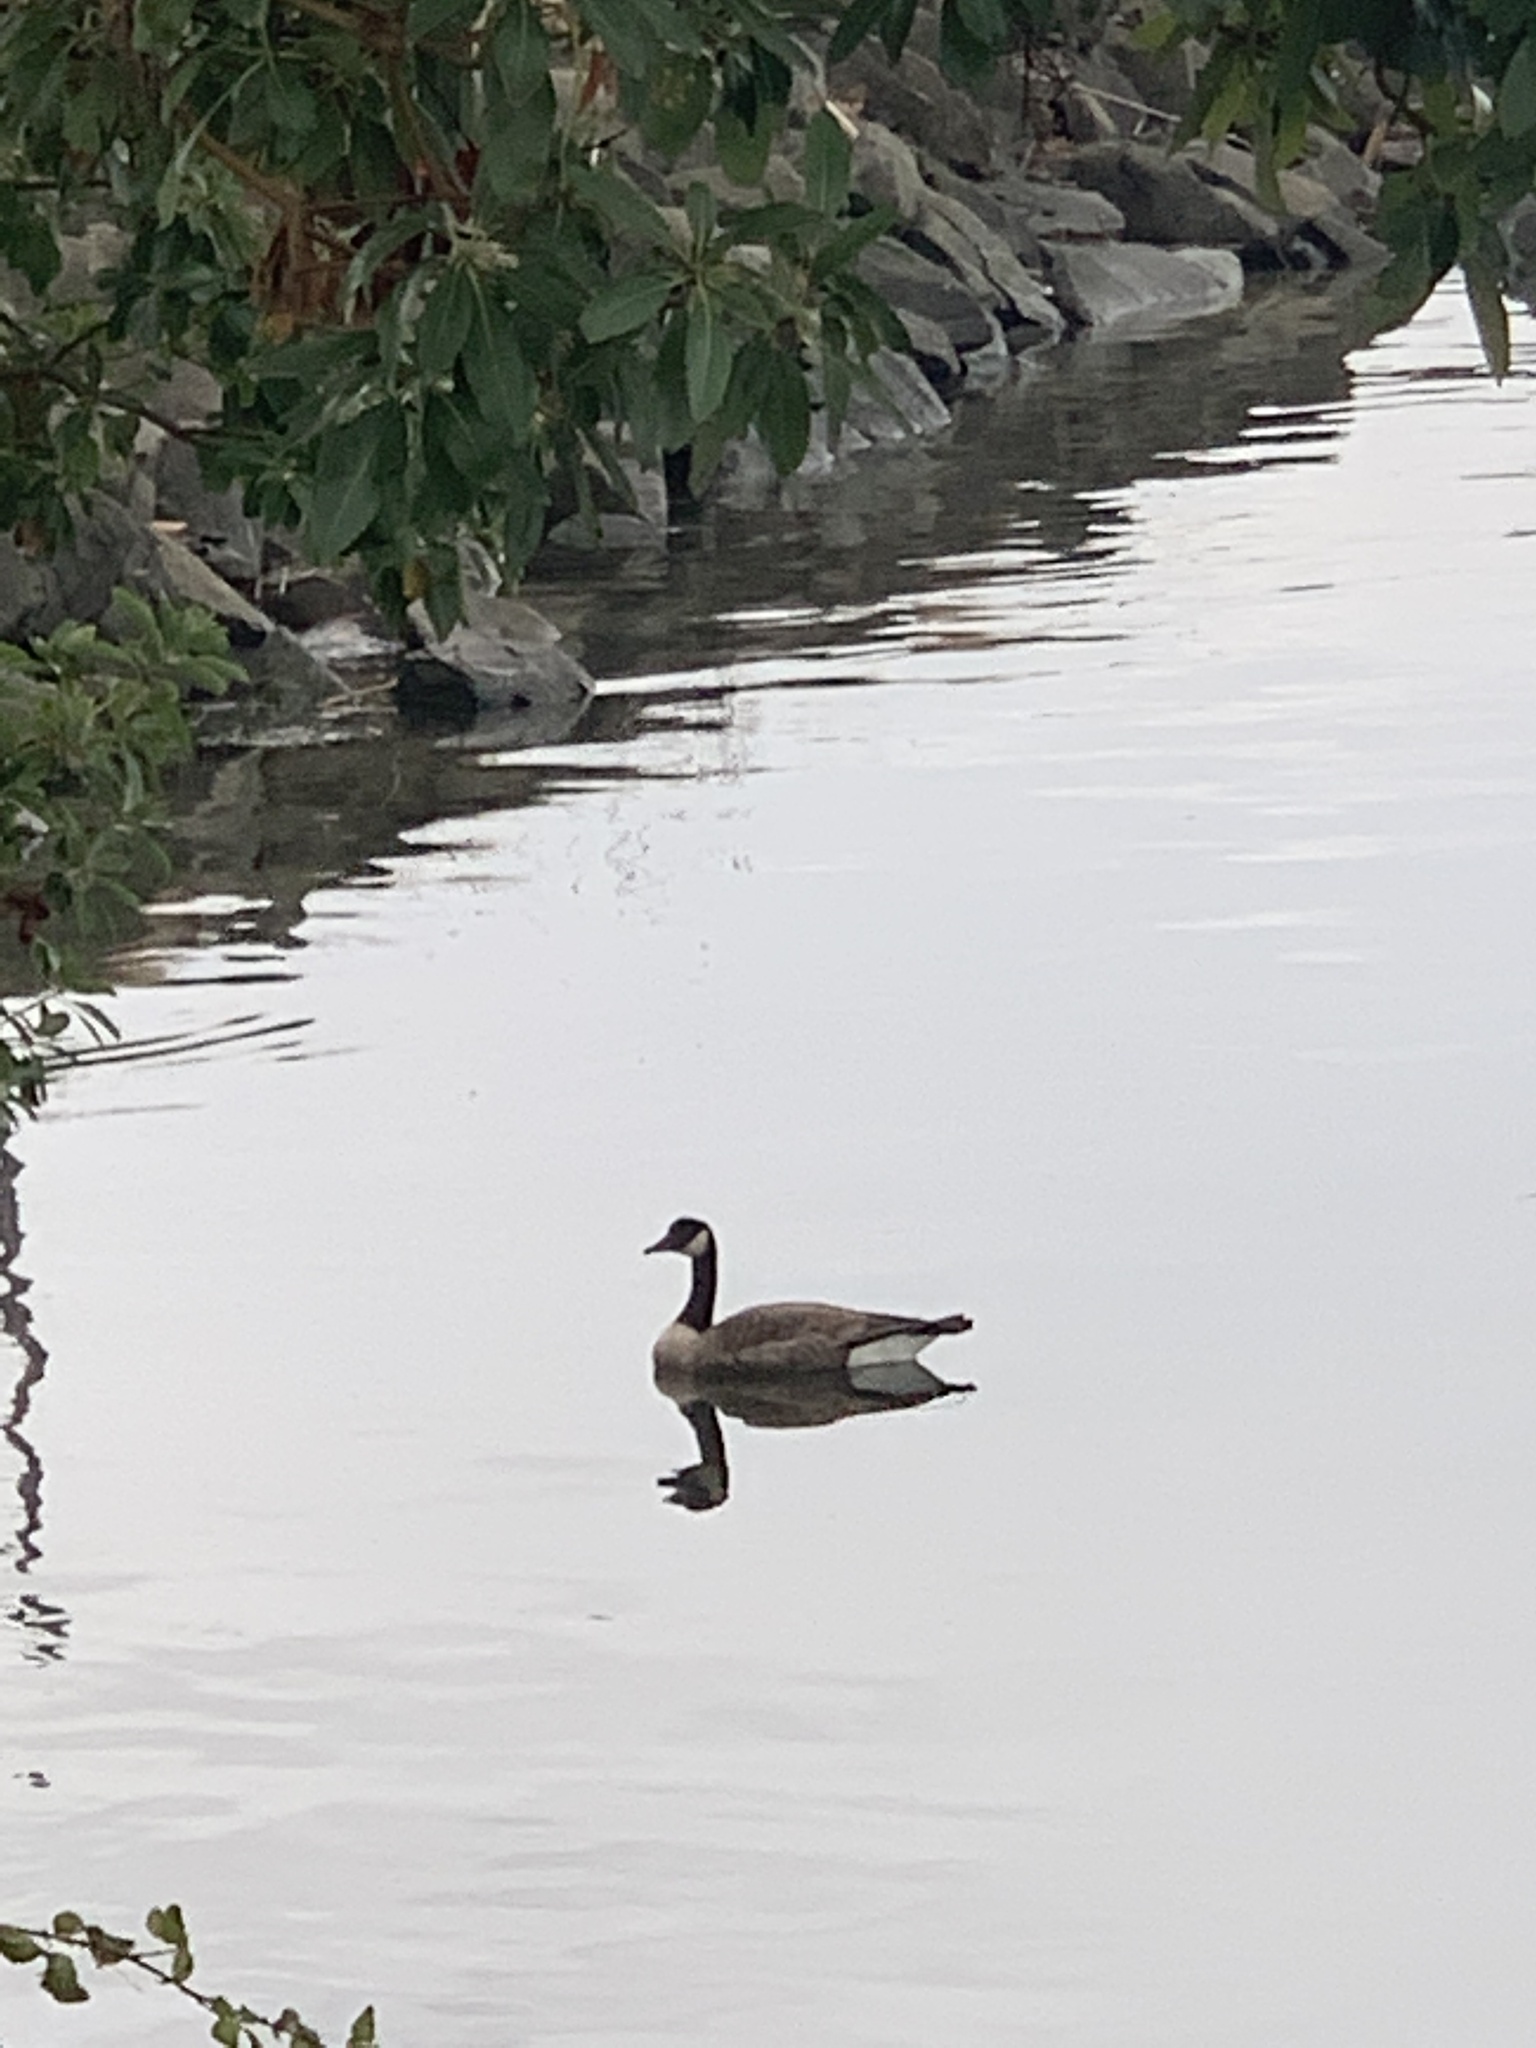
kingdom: Animalia
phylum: Chordata
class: Aves
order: Anseriformes
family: Anatidae
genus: Branta
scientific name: Branta canadensis
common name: Canada goose
